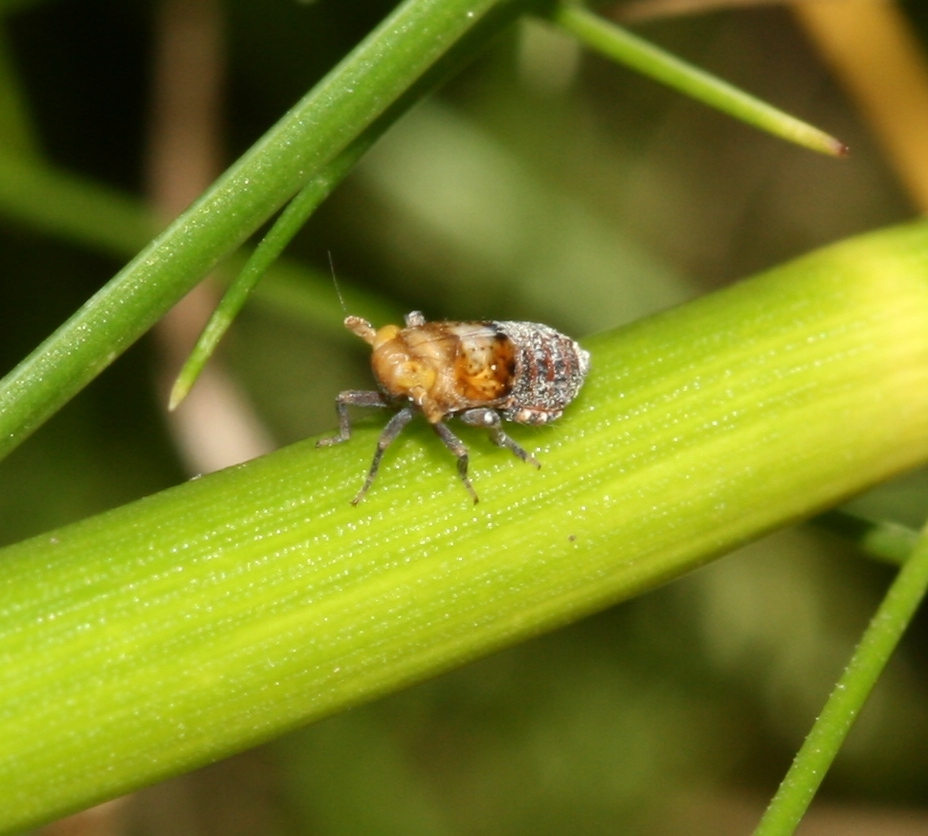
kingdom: Animalia
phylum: Arthropoda
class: Insecta
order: Hemiptera
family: Delphacidae
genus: Conomelus
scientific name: Conomelus anceps
